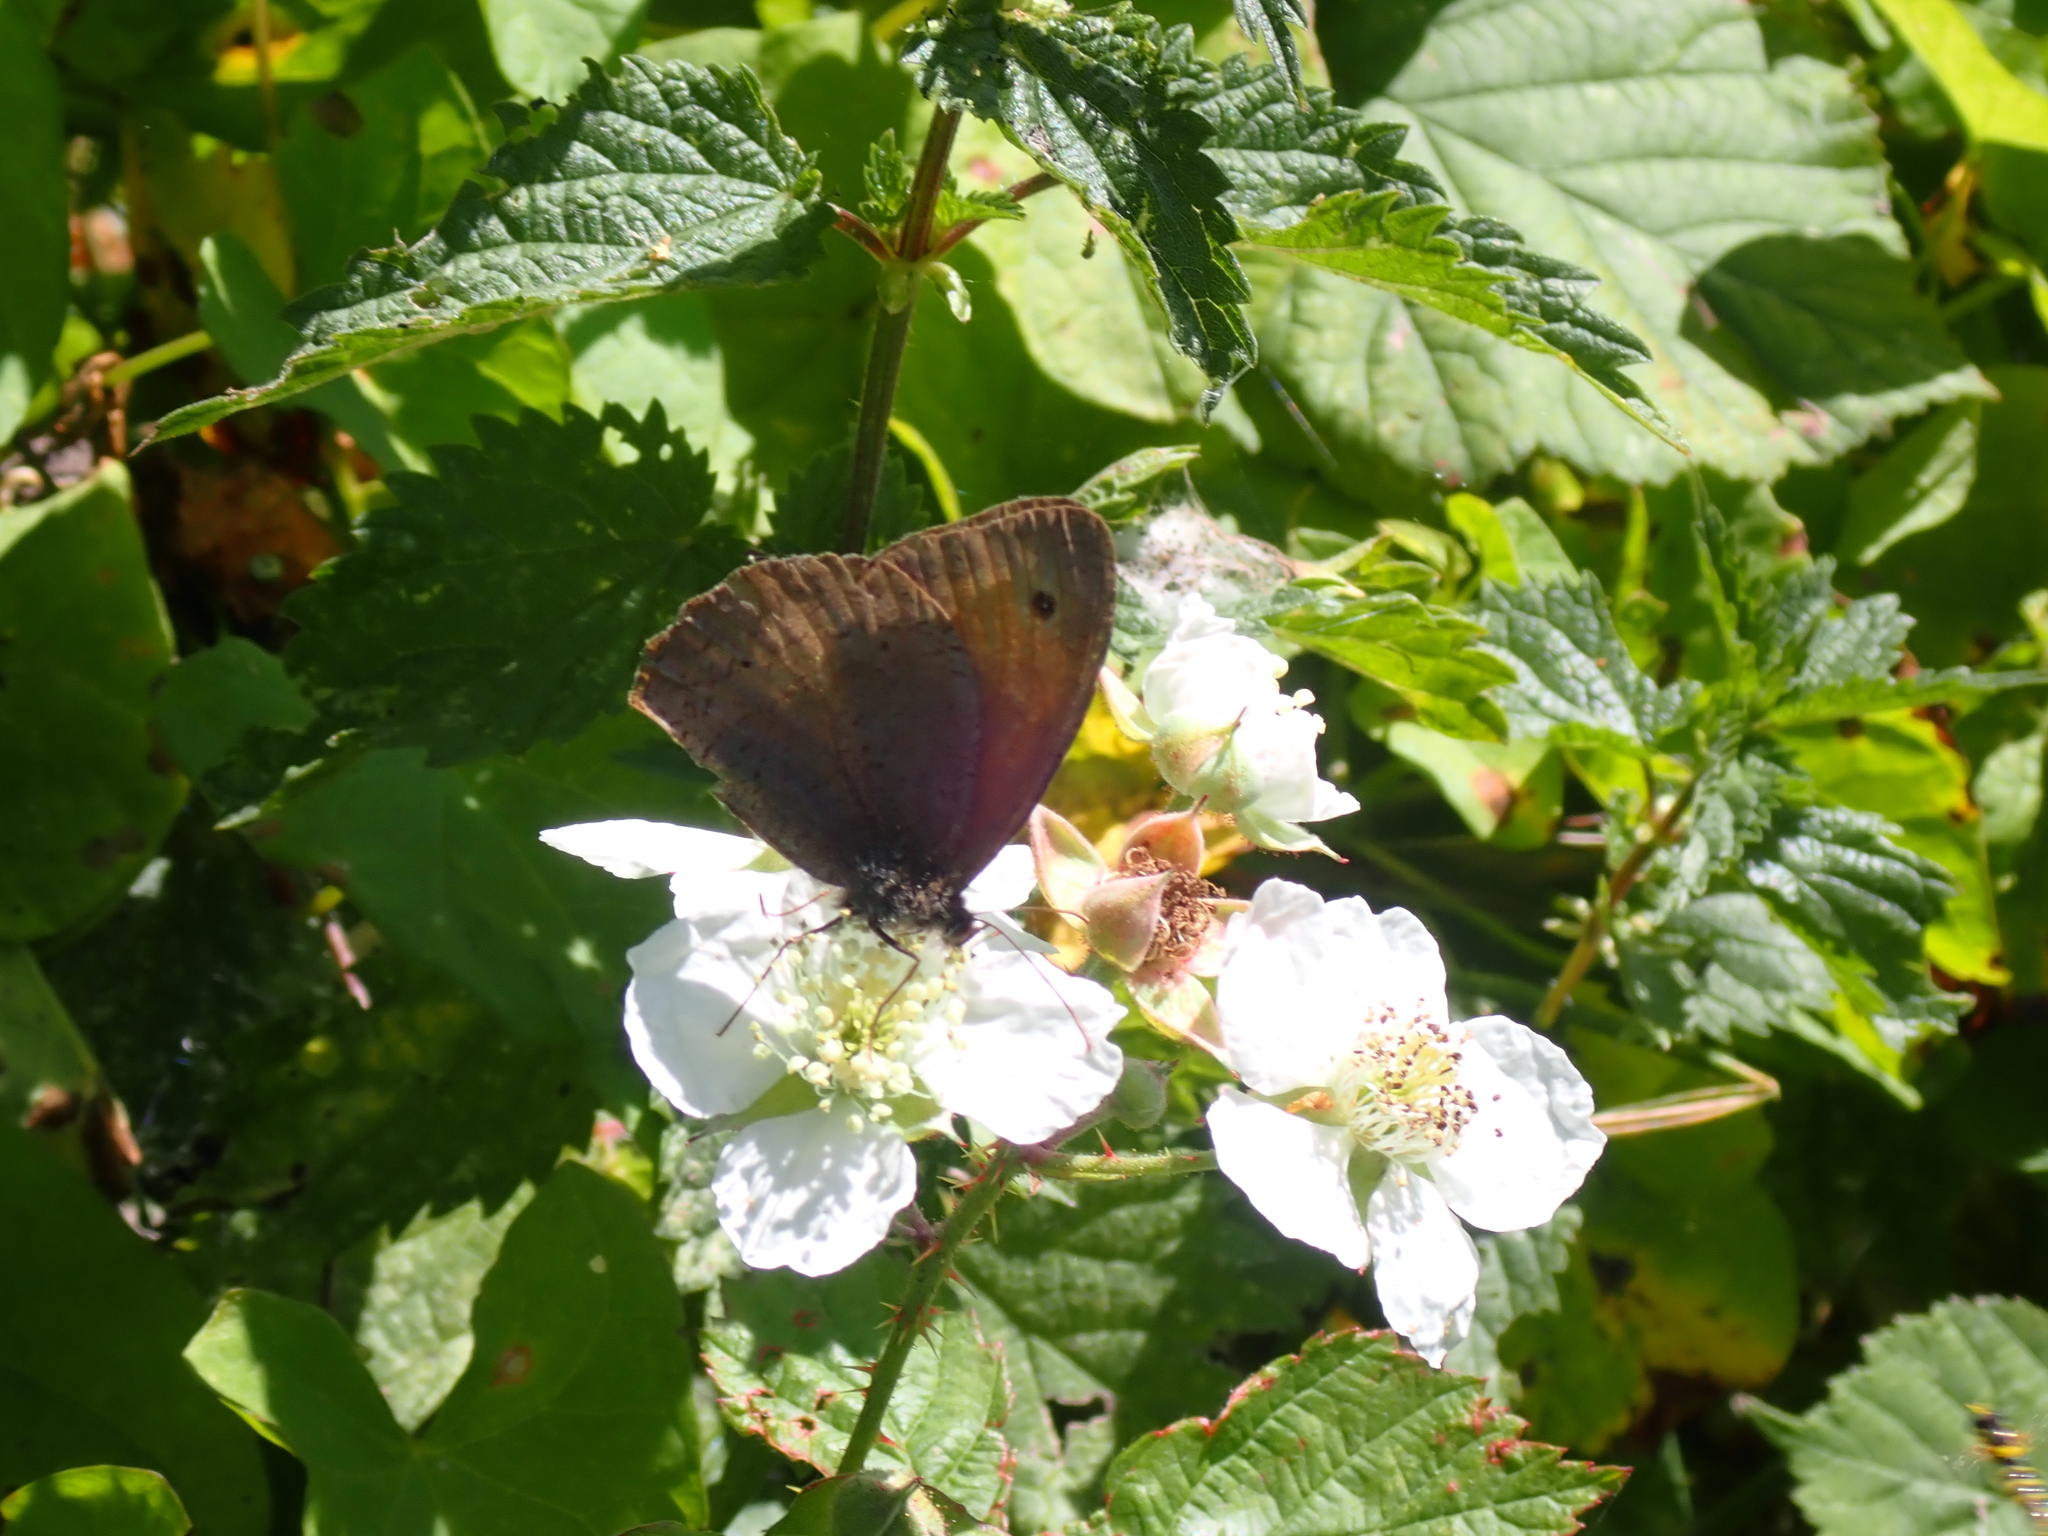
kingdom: Animalia
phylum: Arthropoda
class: Insecta
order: Lepidoptera
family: Nymphalidae
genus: Maniola
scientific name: Maniola jurtina
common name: Meadow brown
